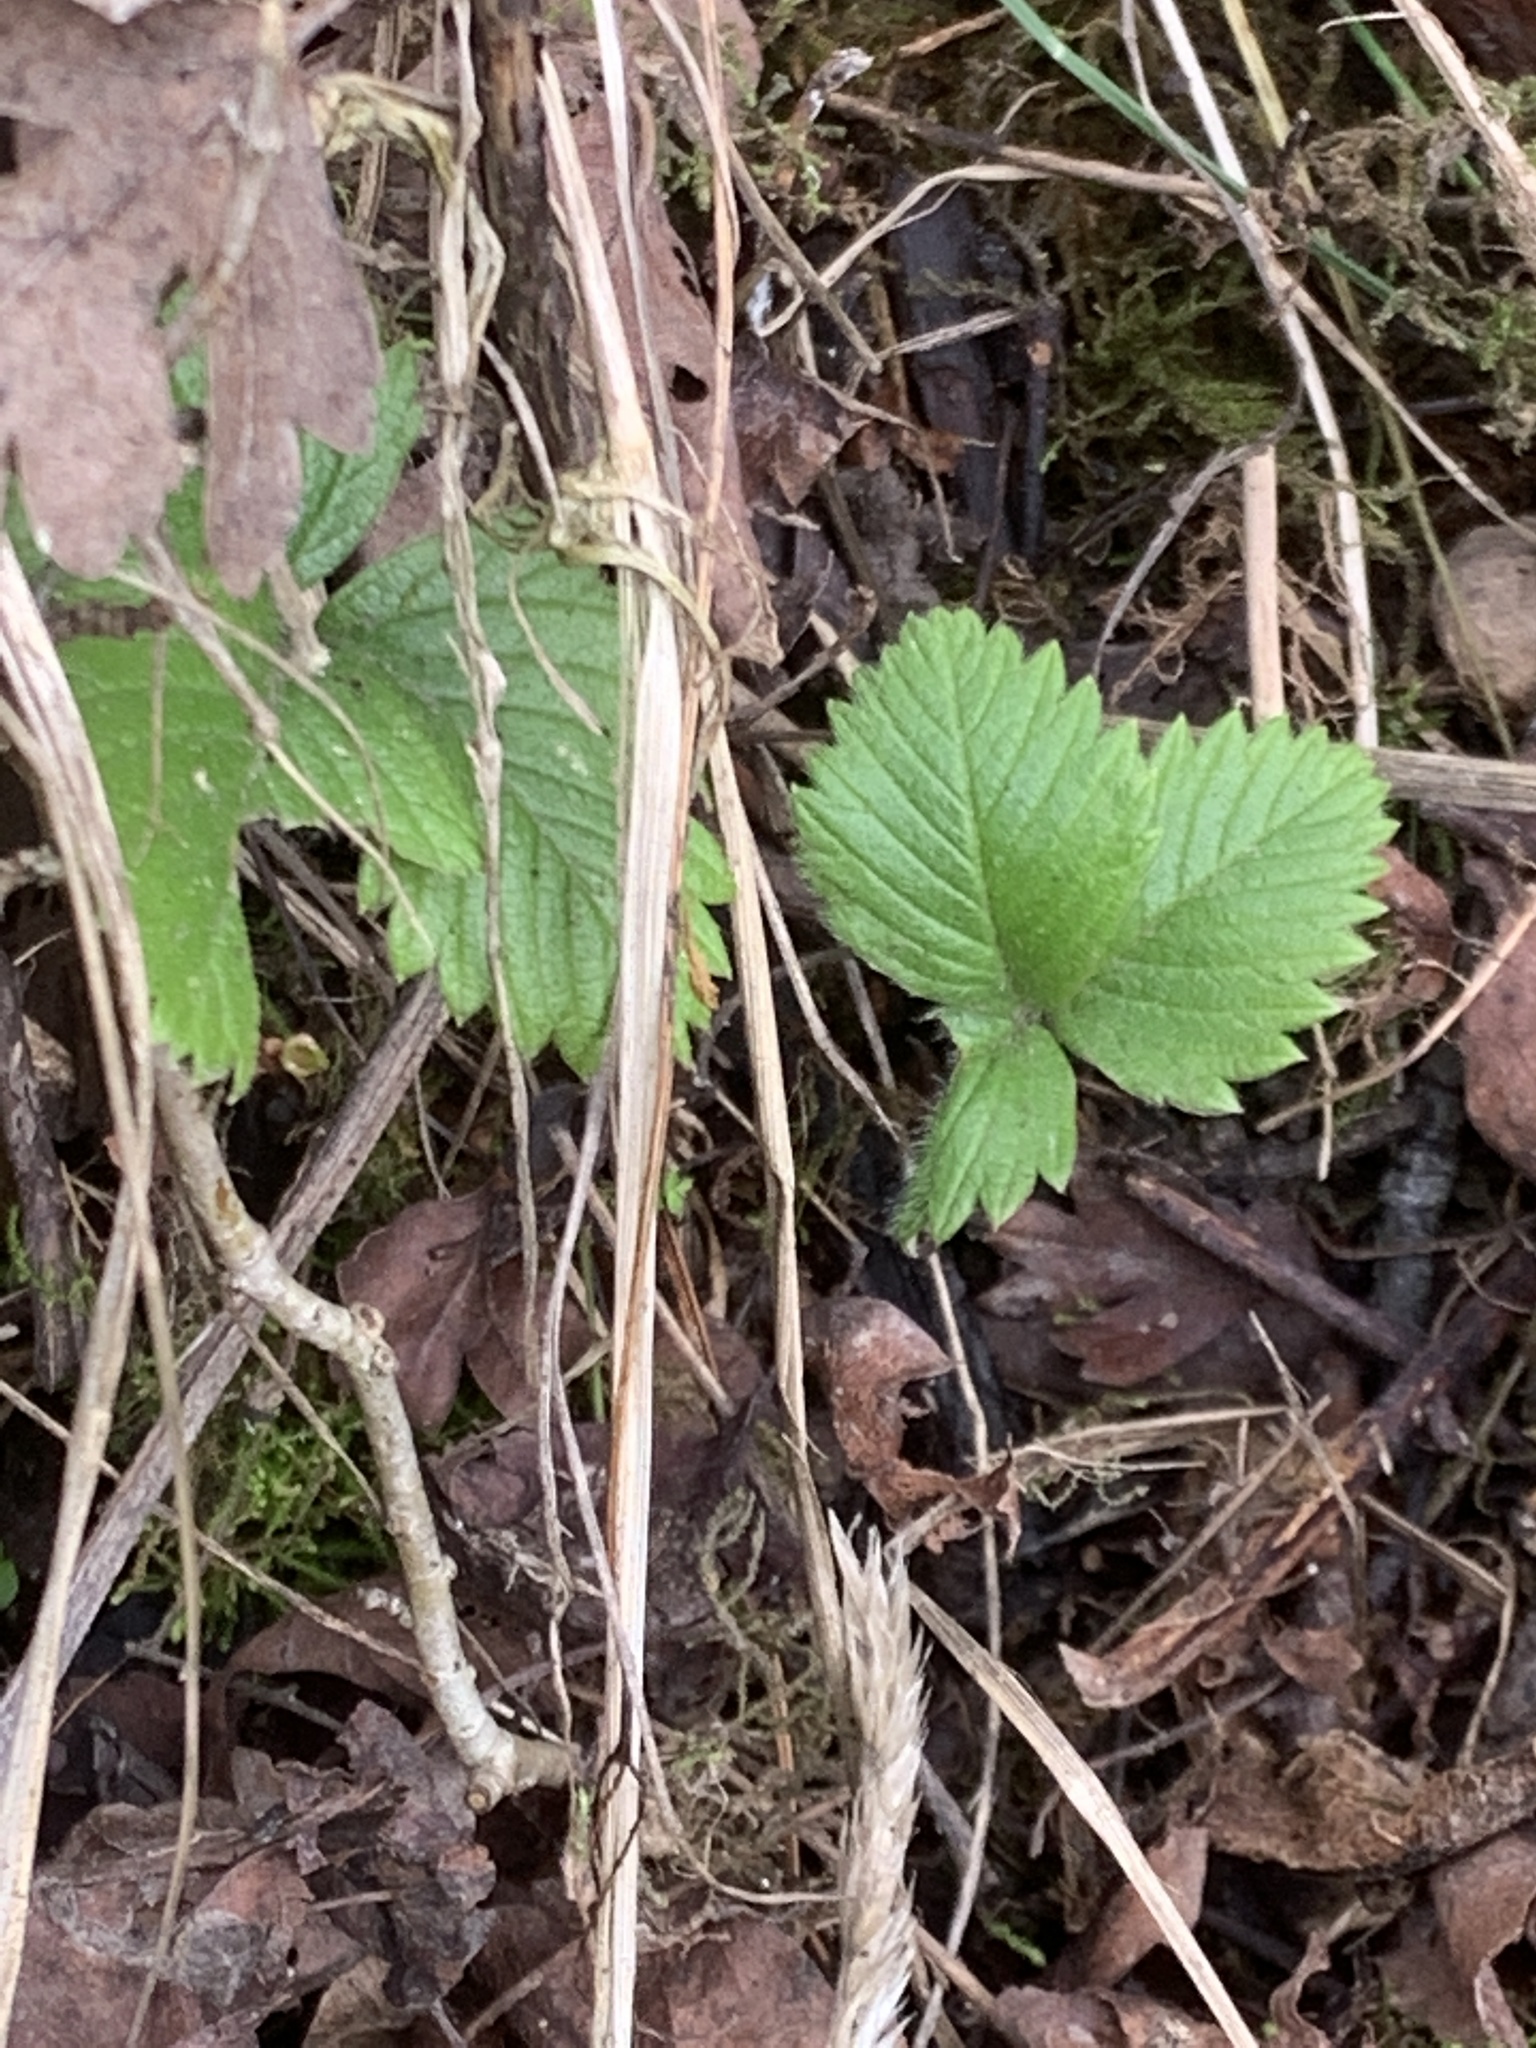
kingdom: Plantae
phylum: Tracheophyta
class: Magnoliopsida
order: Rosales
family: Rosaceae
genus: Fragaria
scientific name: Fragaria vesca
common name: Wild strawberry
